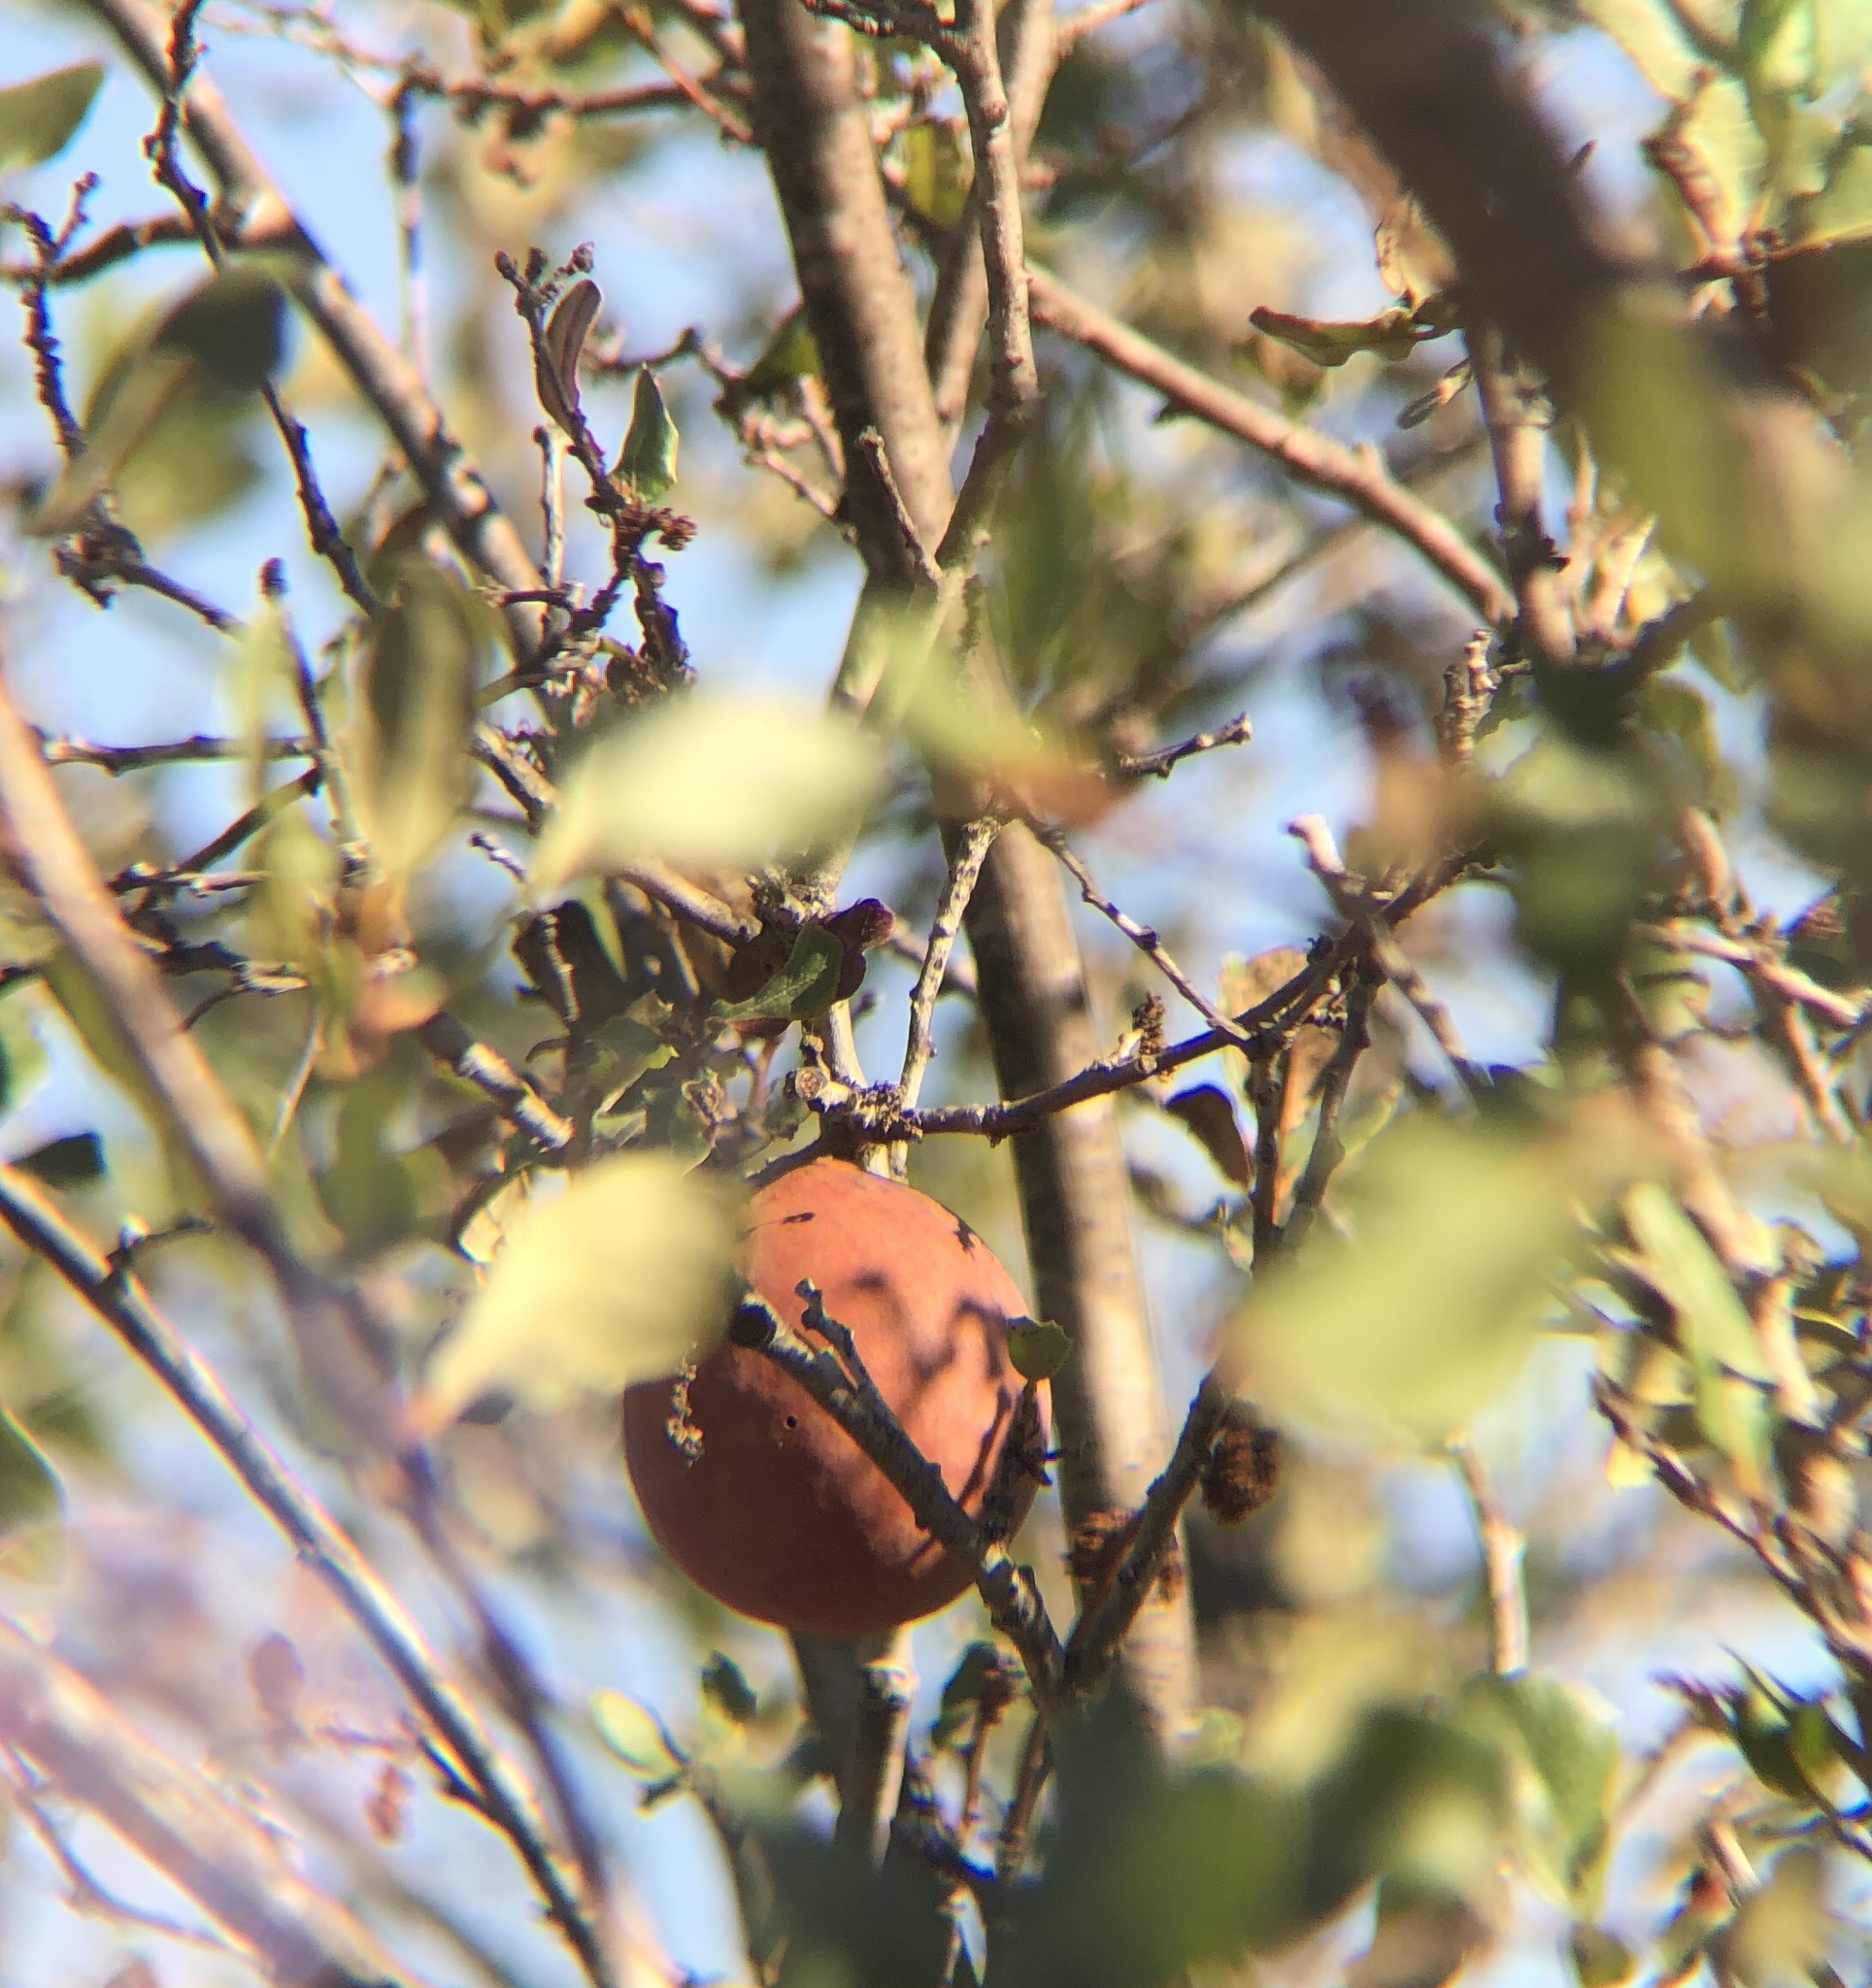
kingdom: Animalia
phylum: Arthropoda
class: Insecta
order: Hymenoptera
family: Cynipidae
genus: Andricus
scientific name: Andricus quercuscalifornicus
